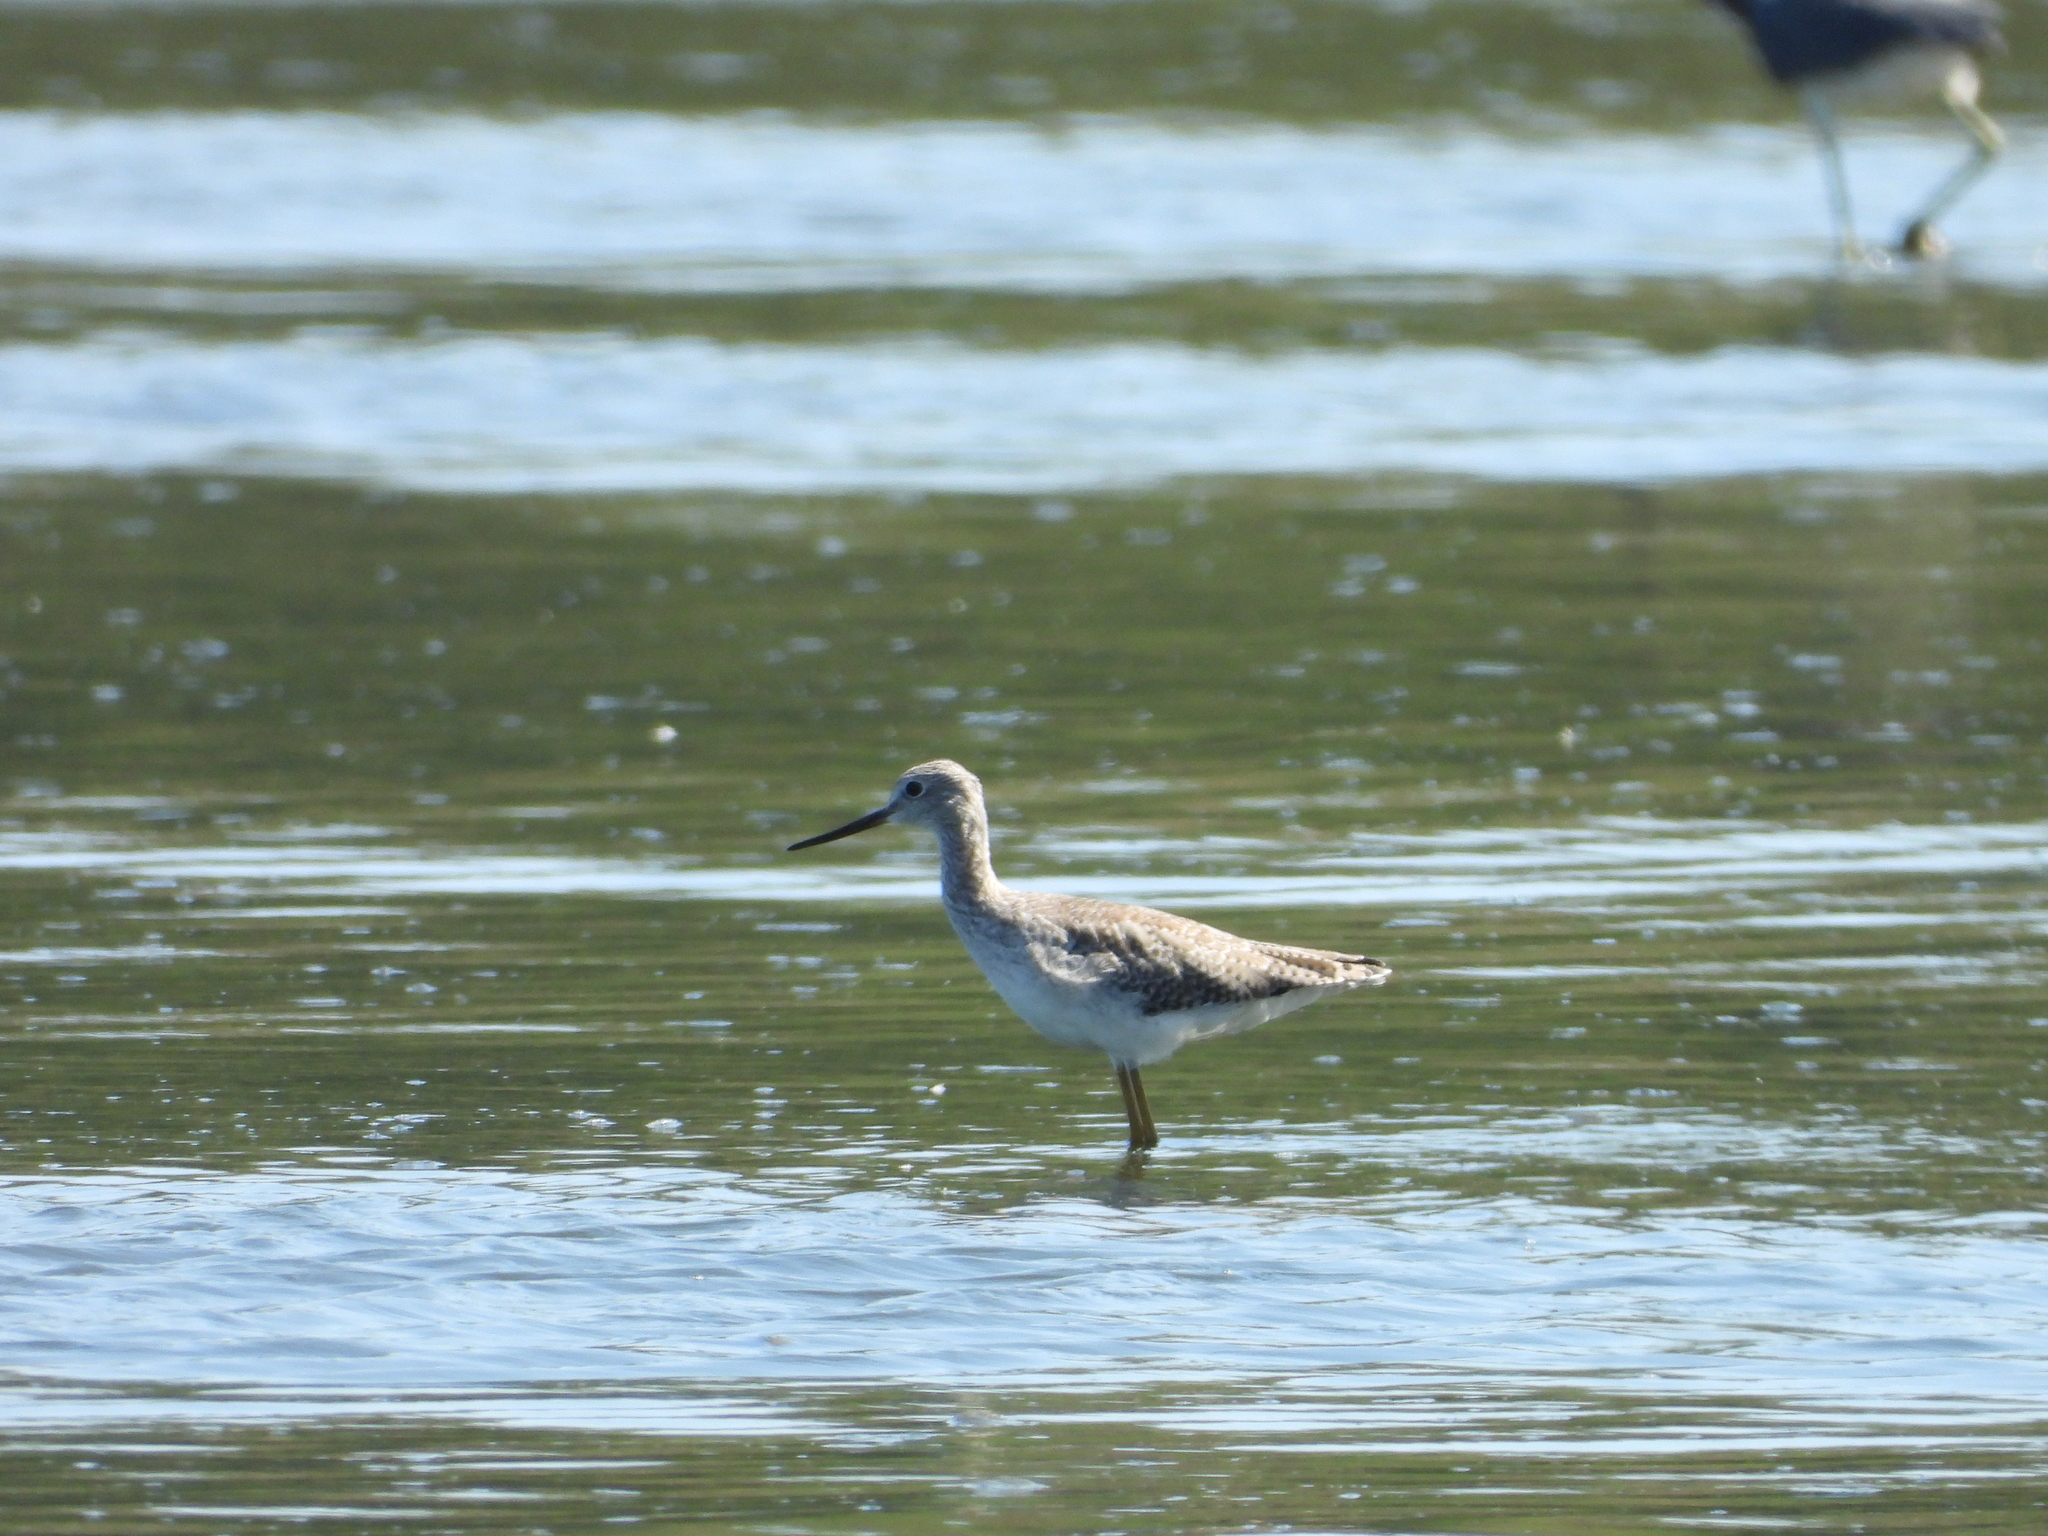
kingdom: Animalia
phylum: Chordata
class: Aves
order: Charadriiformes
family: Scolopacidae
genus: Tringa
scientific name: Tringa melanoleuca
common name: Greater yellowlegs
